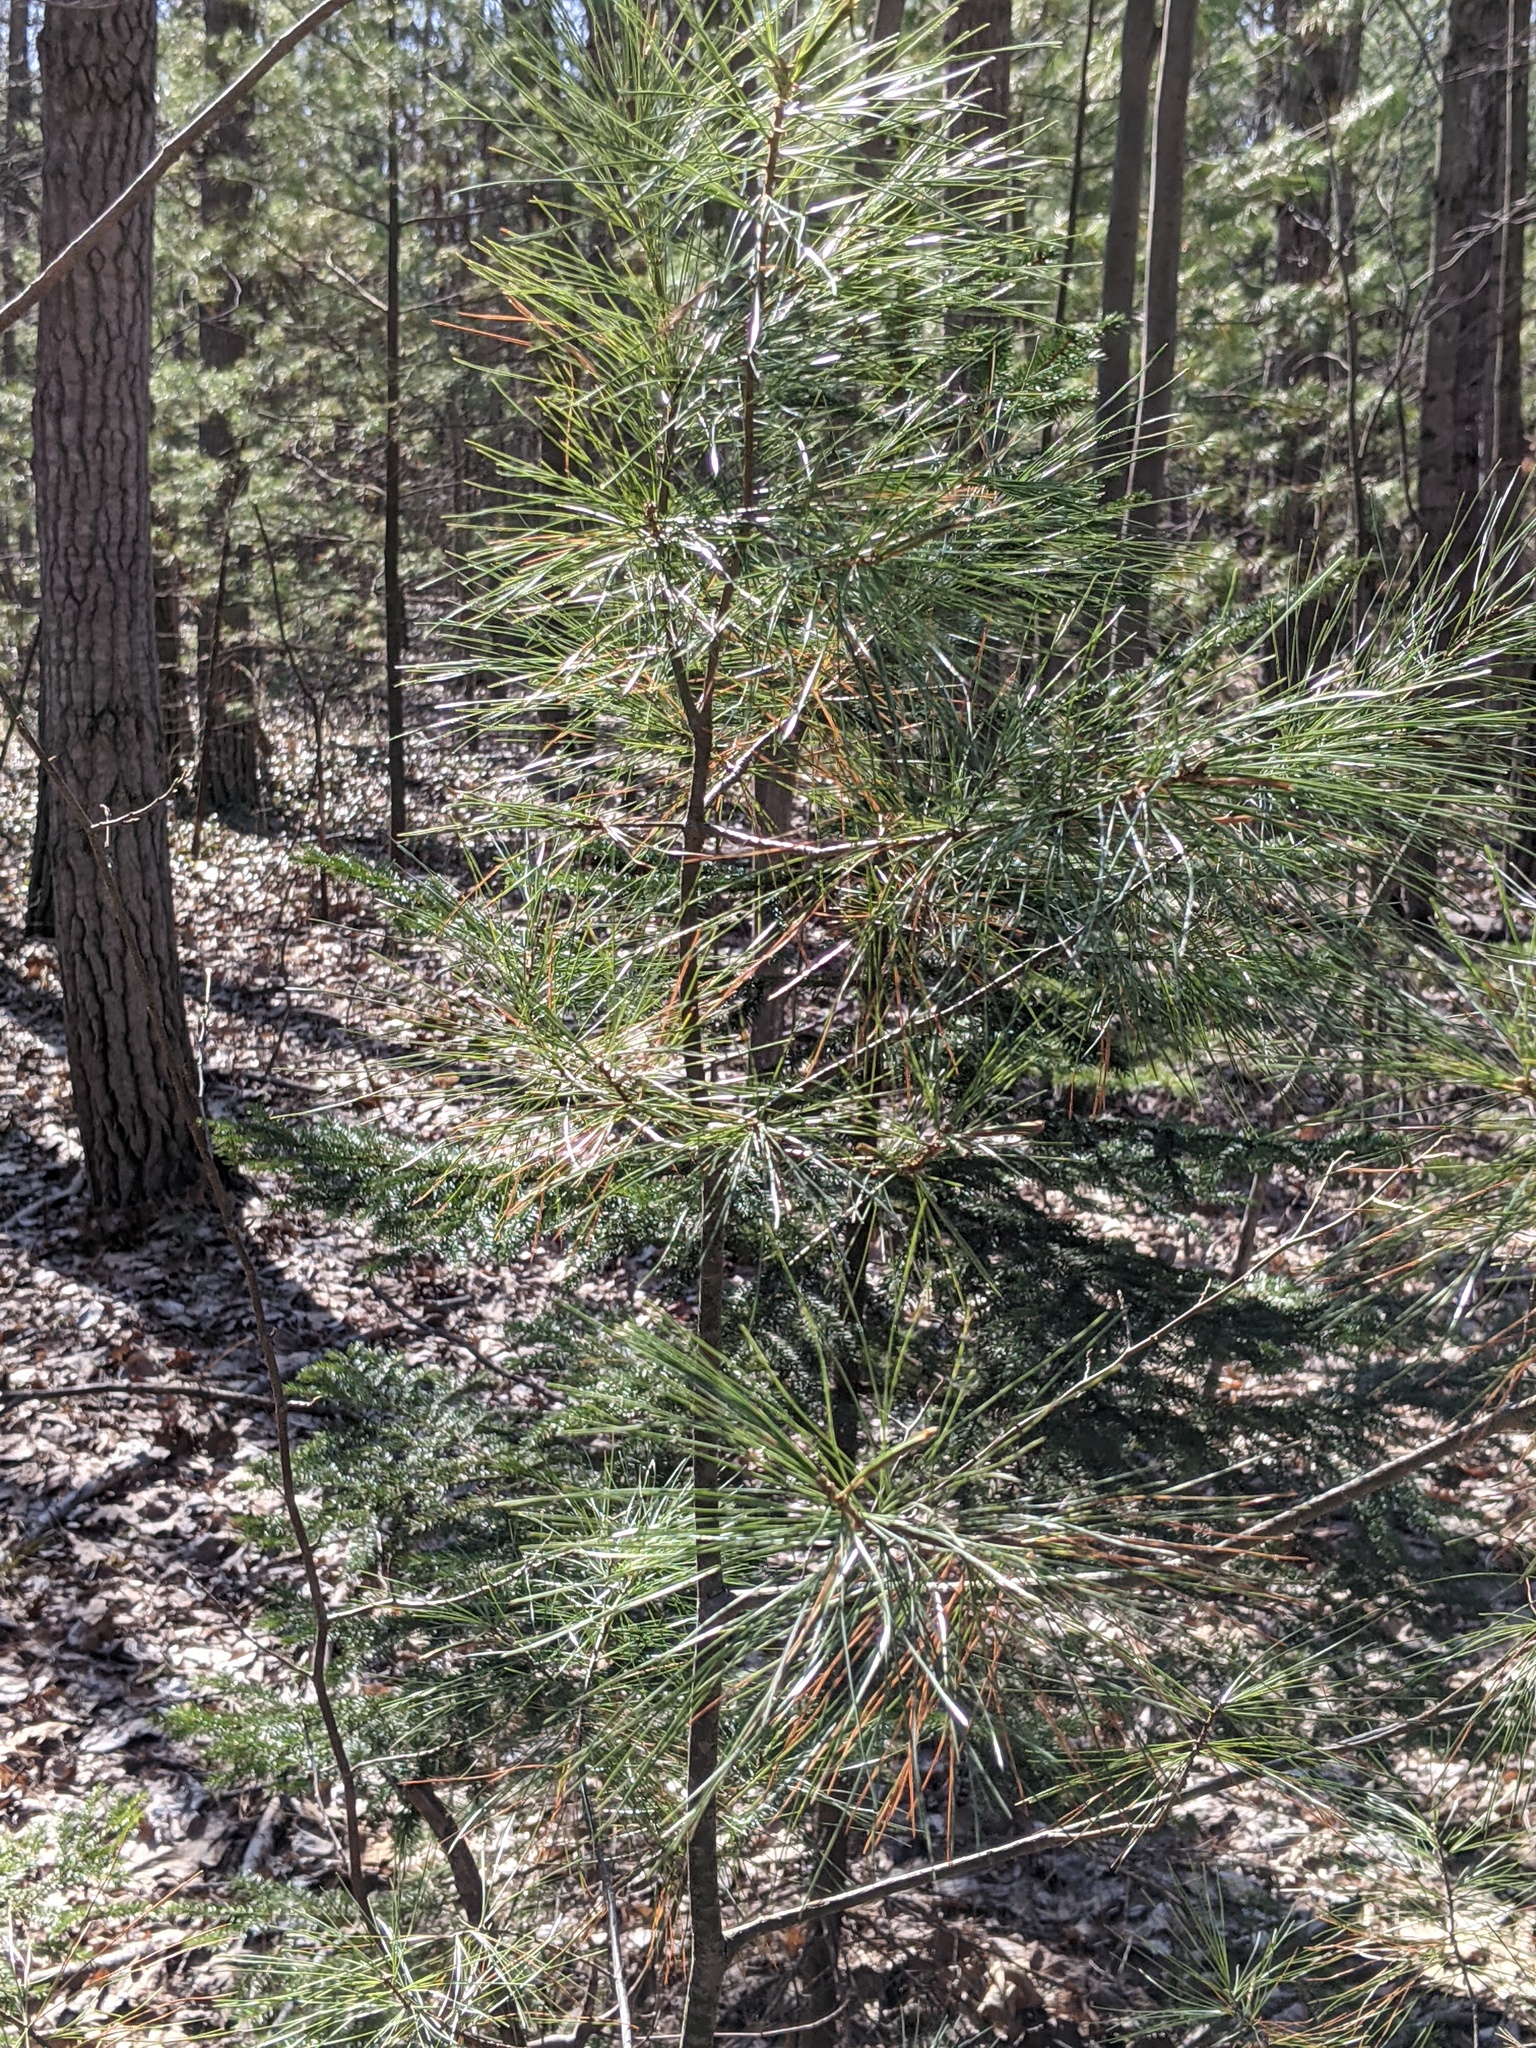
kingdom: Plantae
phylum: Tracheophyta
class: Pinopsida
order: Pinales
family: Pinaceae
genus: Pinus
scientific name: Pinus strobus
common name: Weymouth pine
